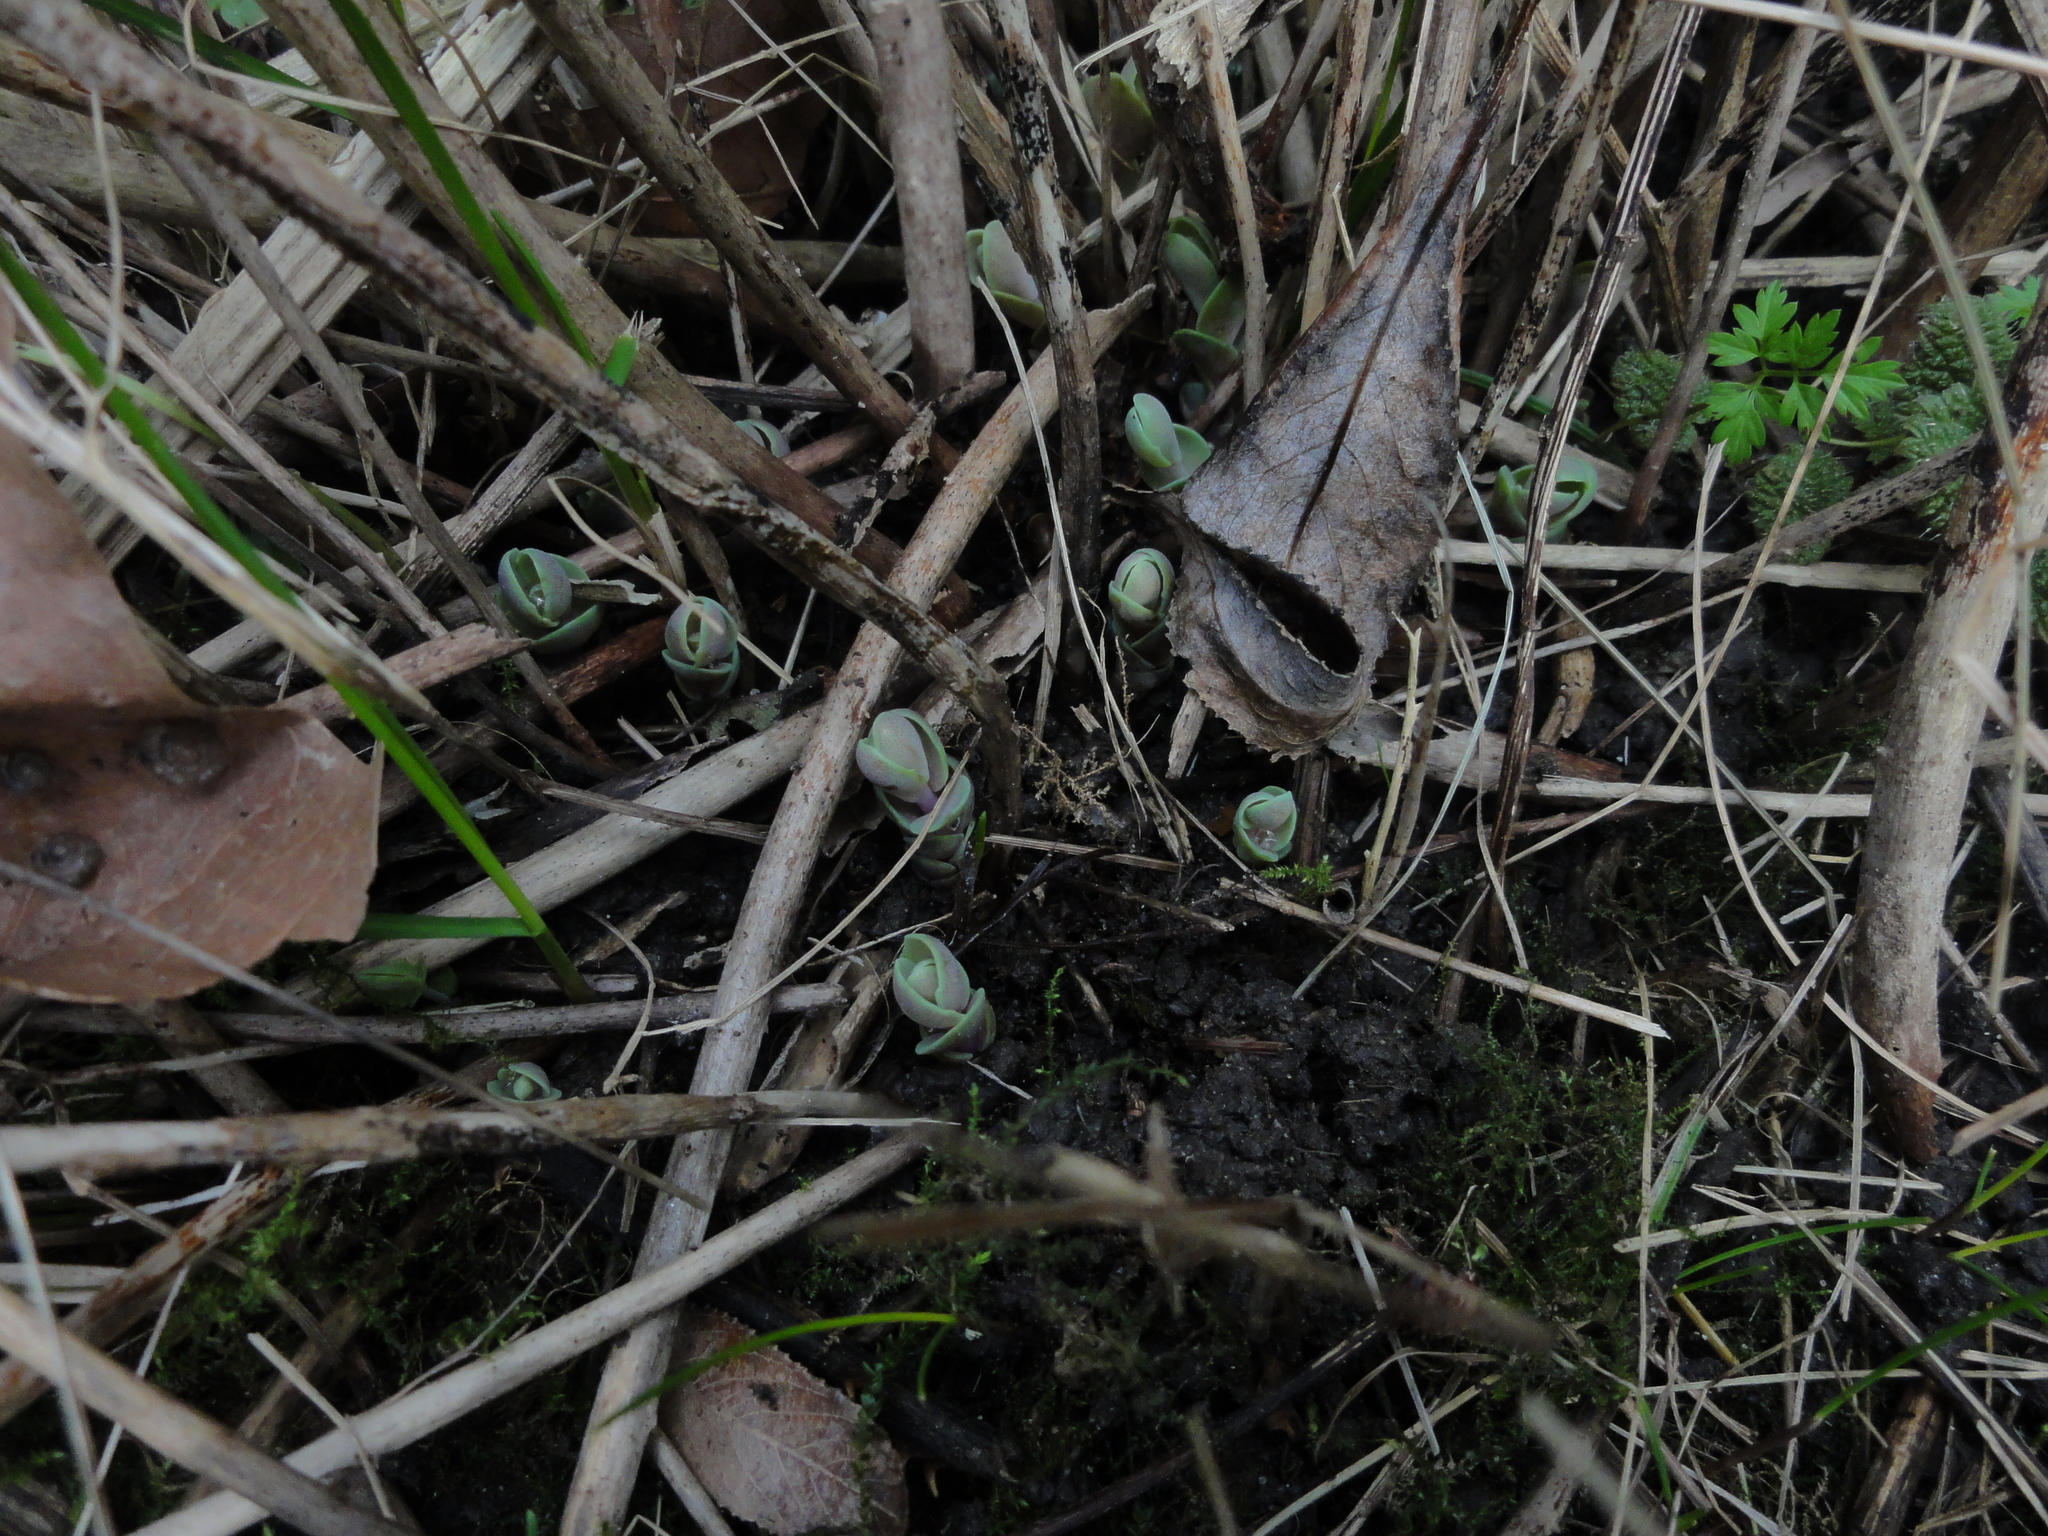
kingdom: Plantae
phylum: Tracheophyta
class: Magnoliopsida
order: Saxifragales
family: Crassulaceae
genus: Hylotelephium
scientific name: Hylotelephium telephium
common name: Live-forever
